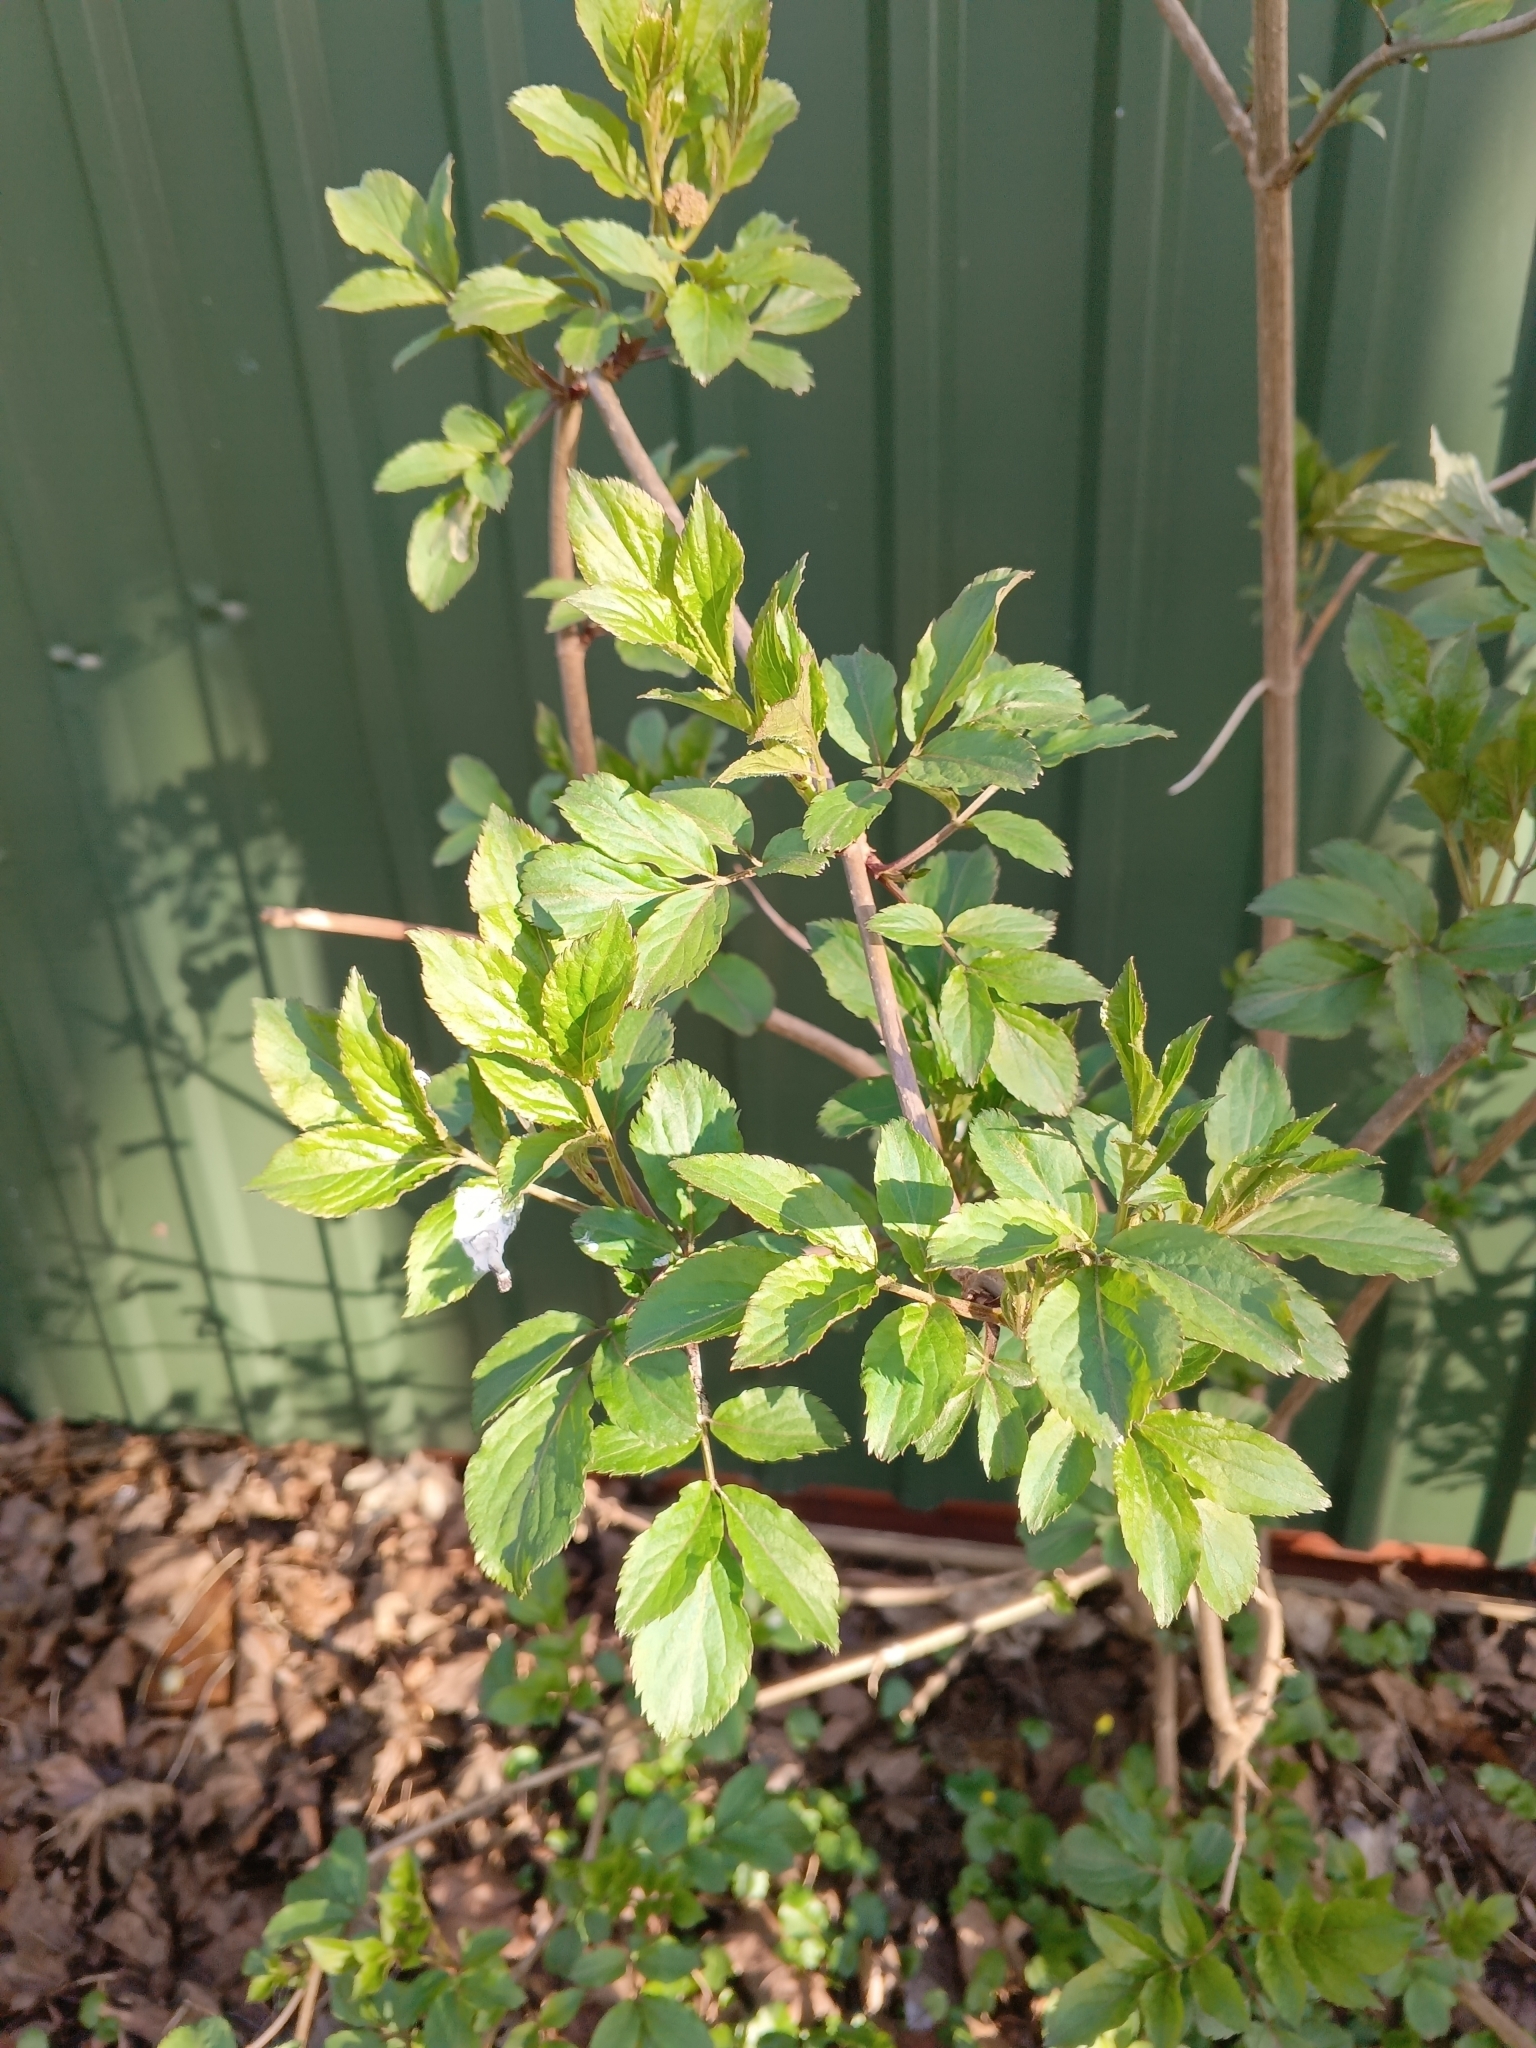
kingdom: Plantae
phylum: Tracheophyta
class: Magnoliopsida
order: Dipsacales
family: Viburnaceae
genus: Sambucus
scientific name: Sambucus nigra
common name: Elder
